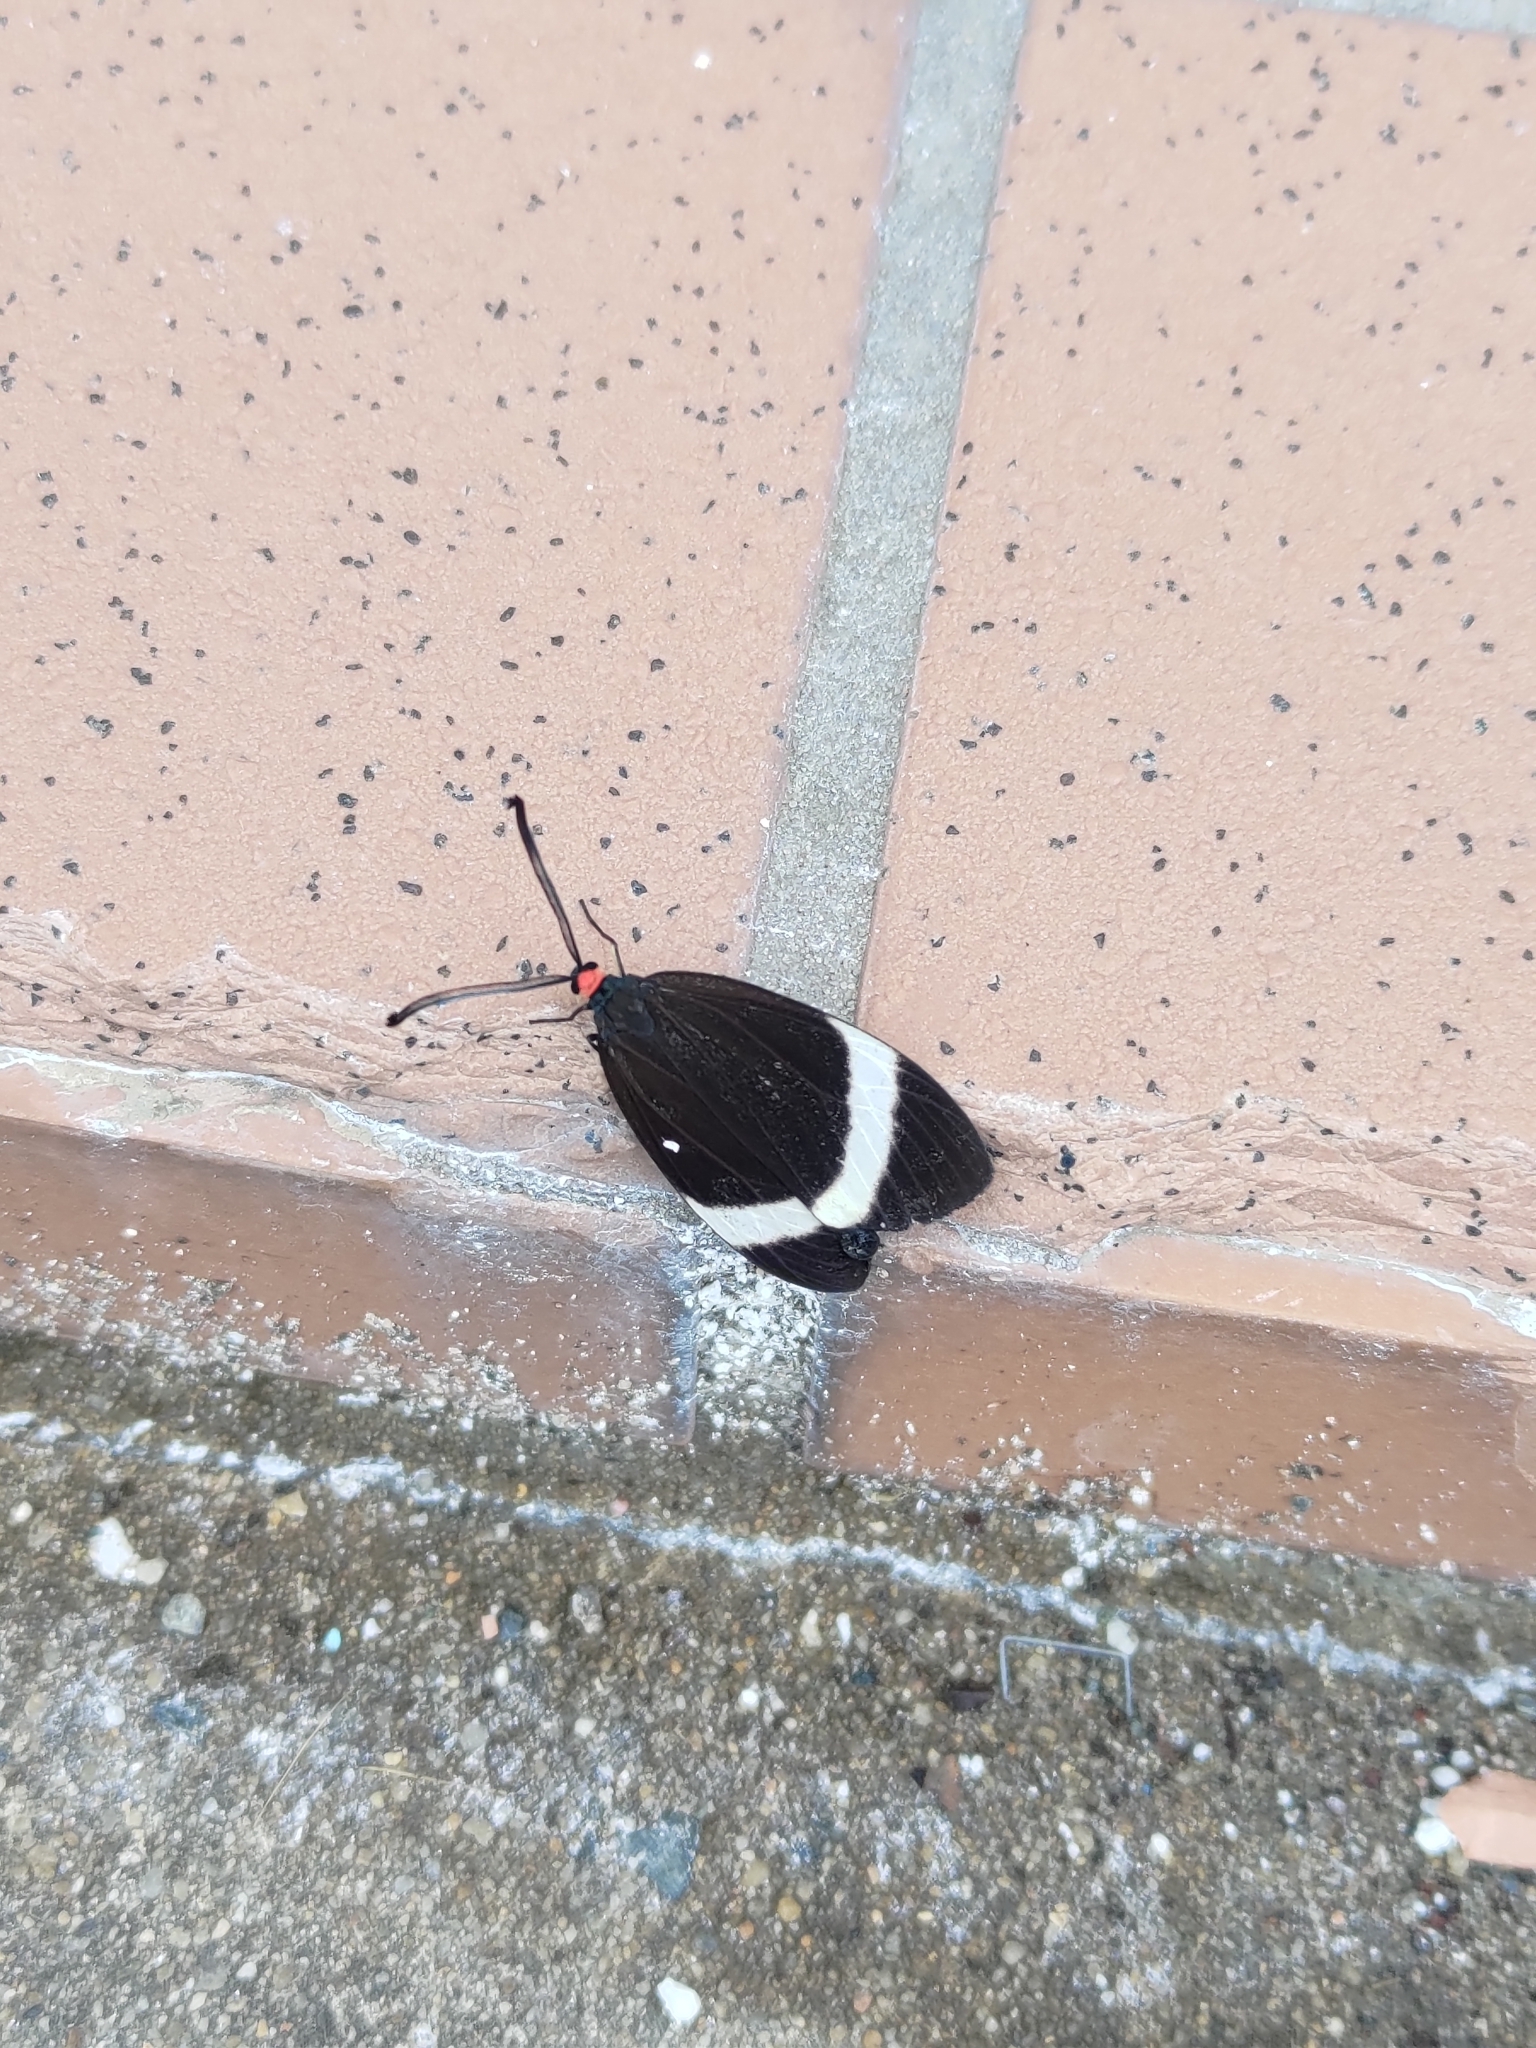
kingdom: Animalia
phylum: Arthropoda
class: Insecta
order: Lepidoptera
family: Zygaenidae
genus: Pidorus
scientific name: Pidorus glaucopis
